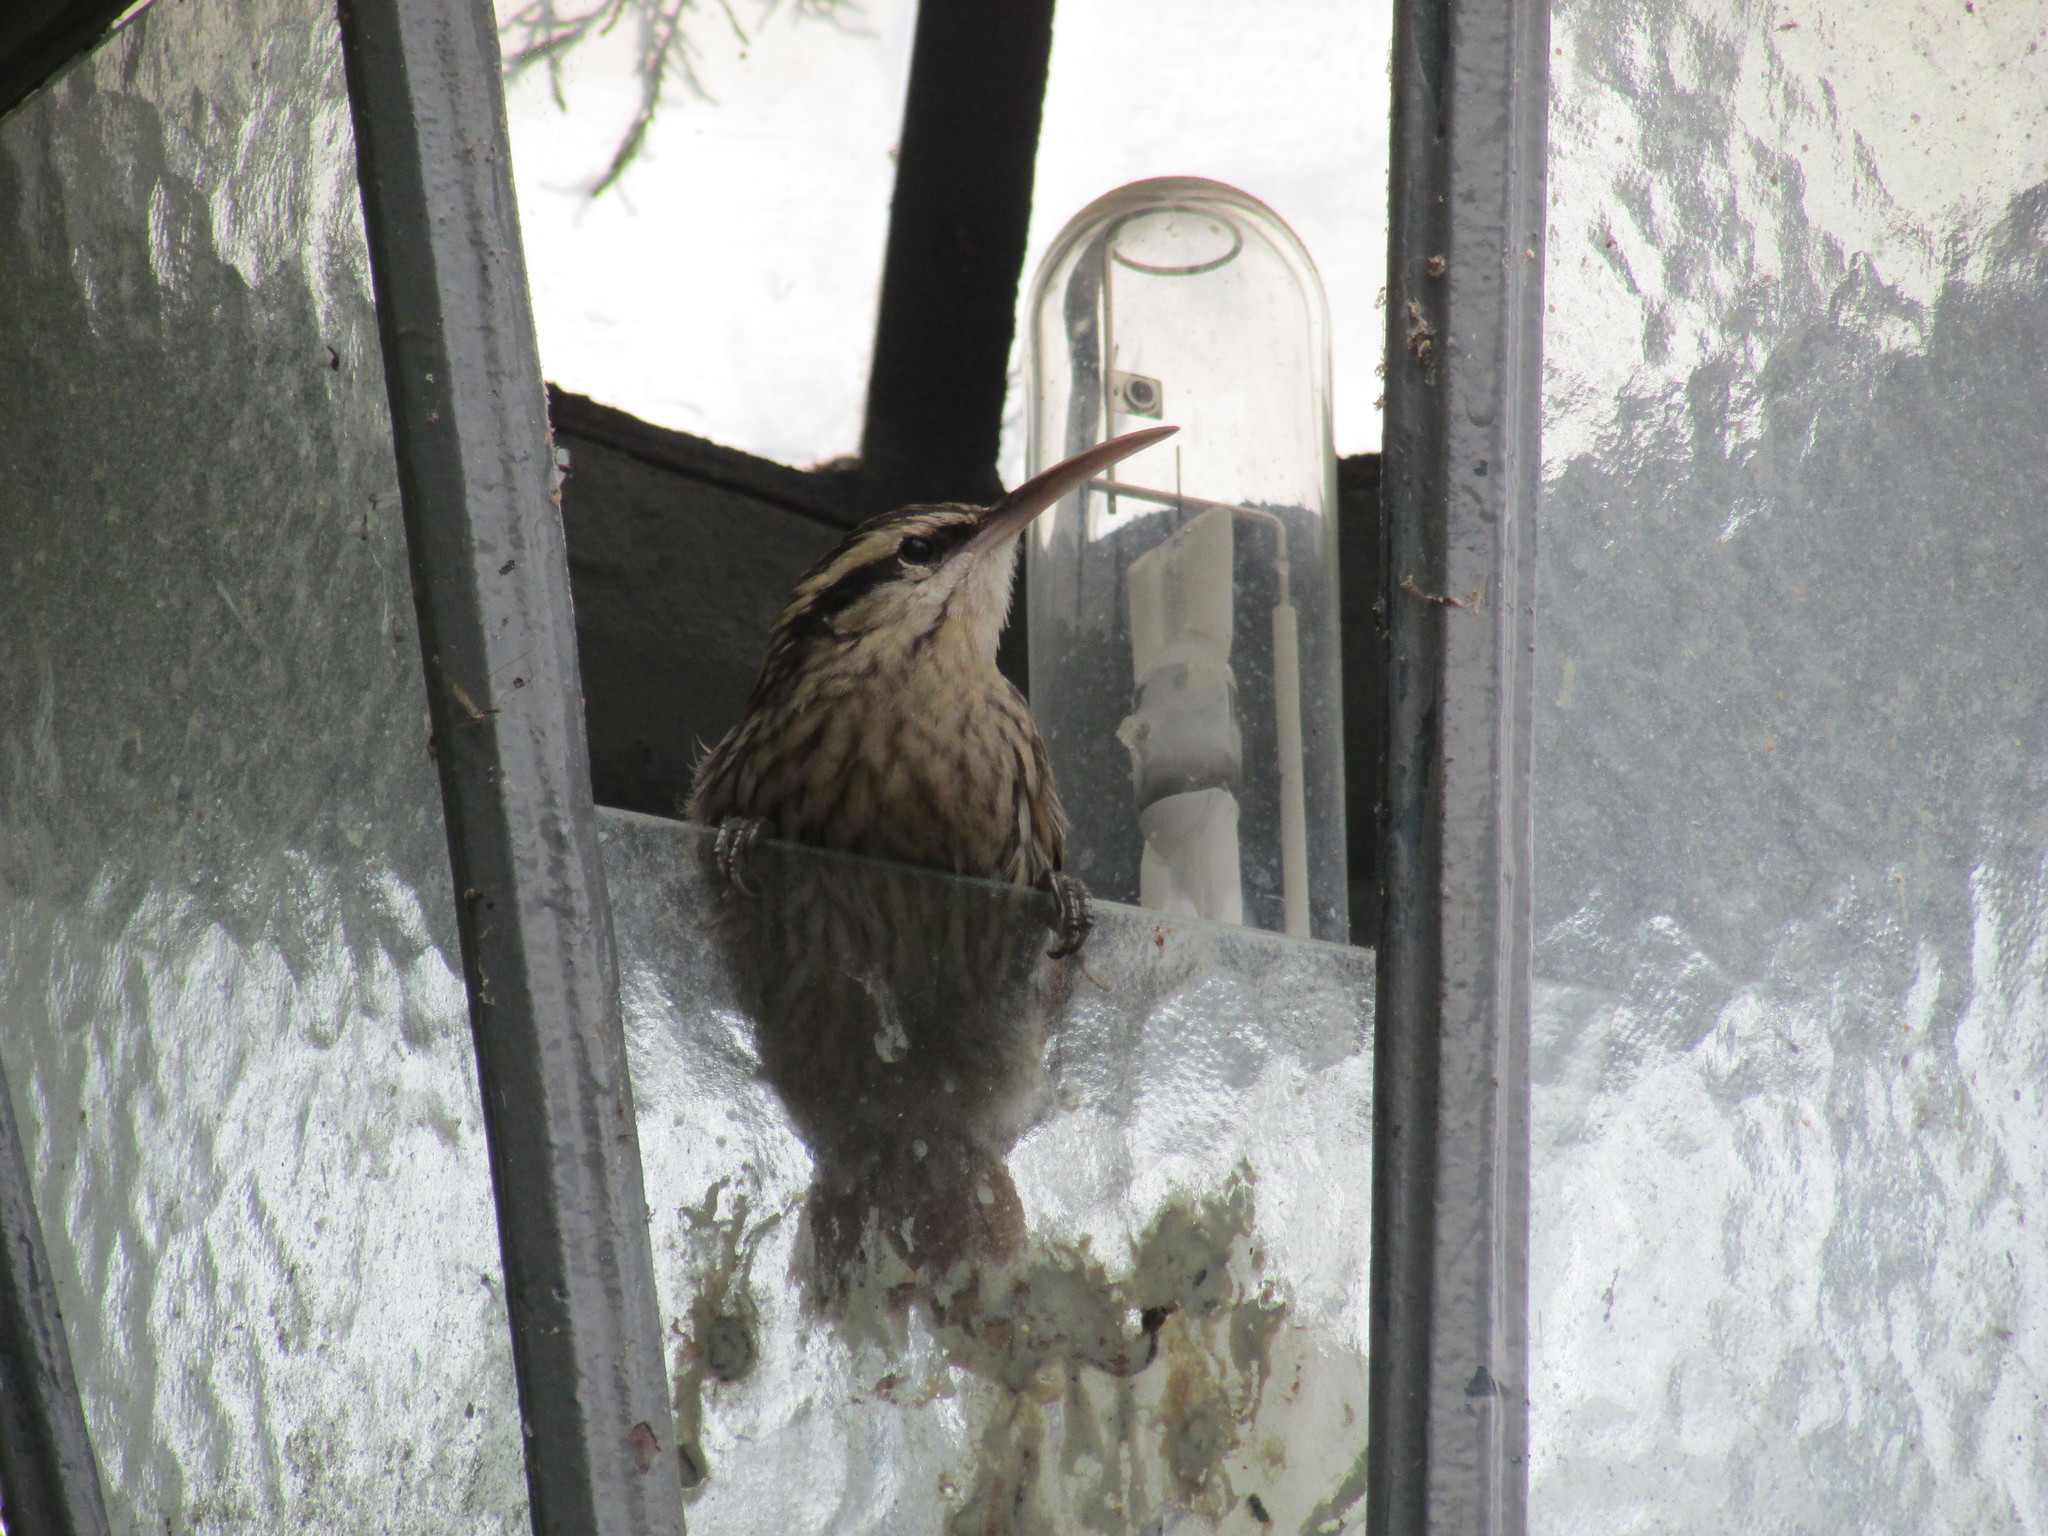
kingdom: Animalia
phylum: Chordata
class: Aves
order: Passeriformes
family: Furnariidae
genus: Lepidocolaptes
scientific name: Lepidocolaptes angustirostris
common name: Narrow-billed woodcreeper
